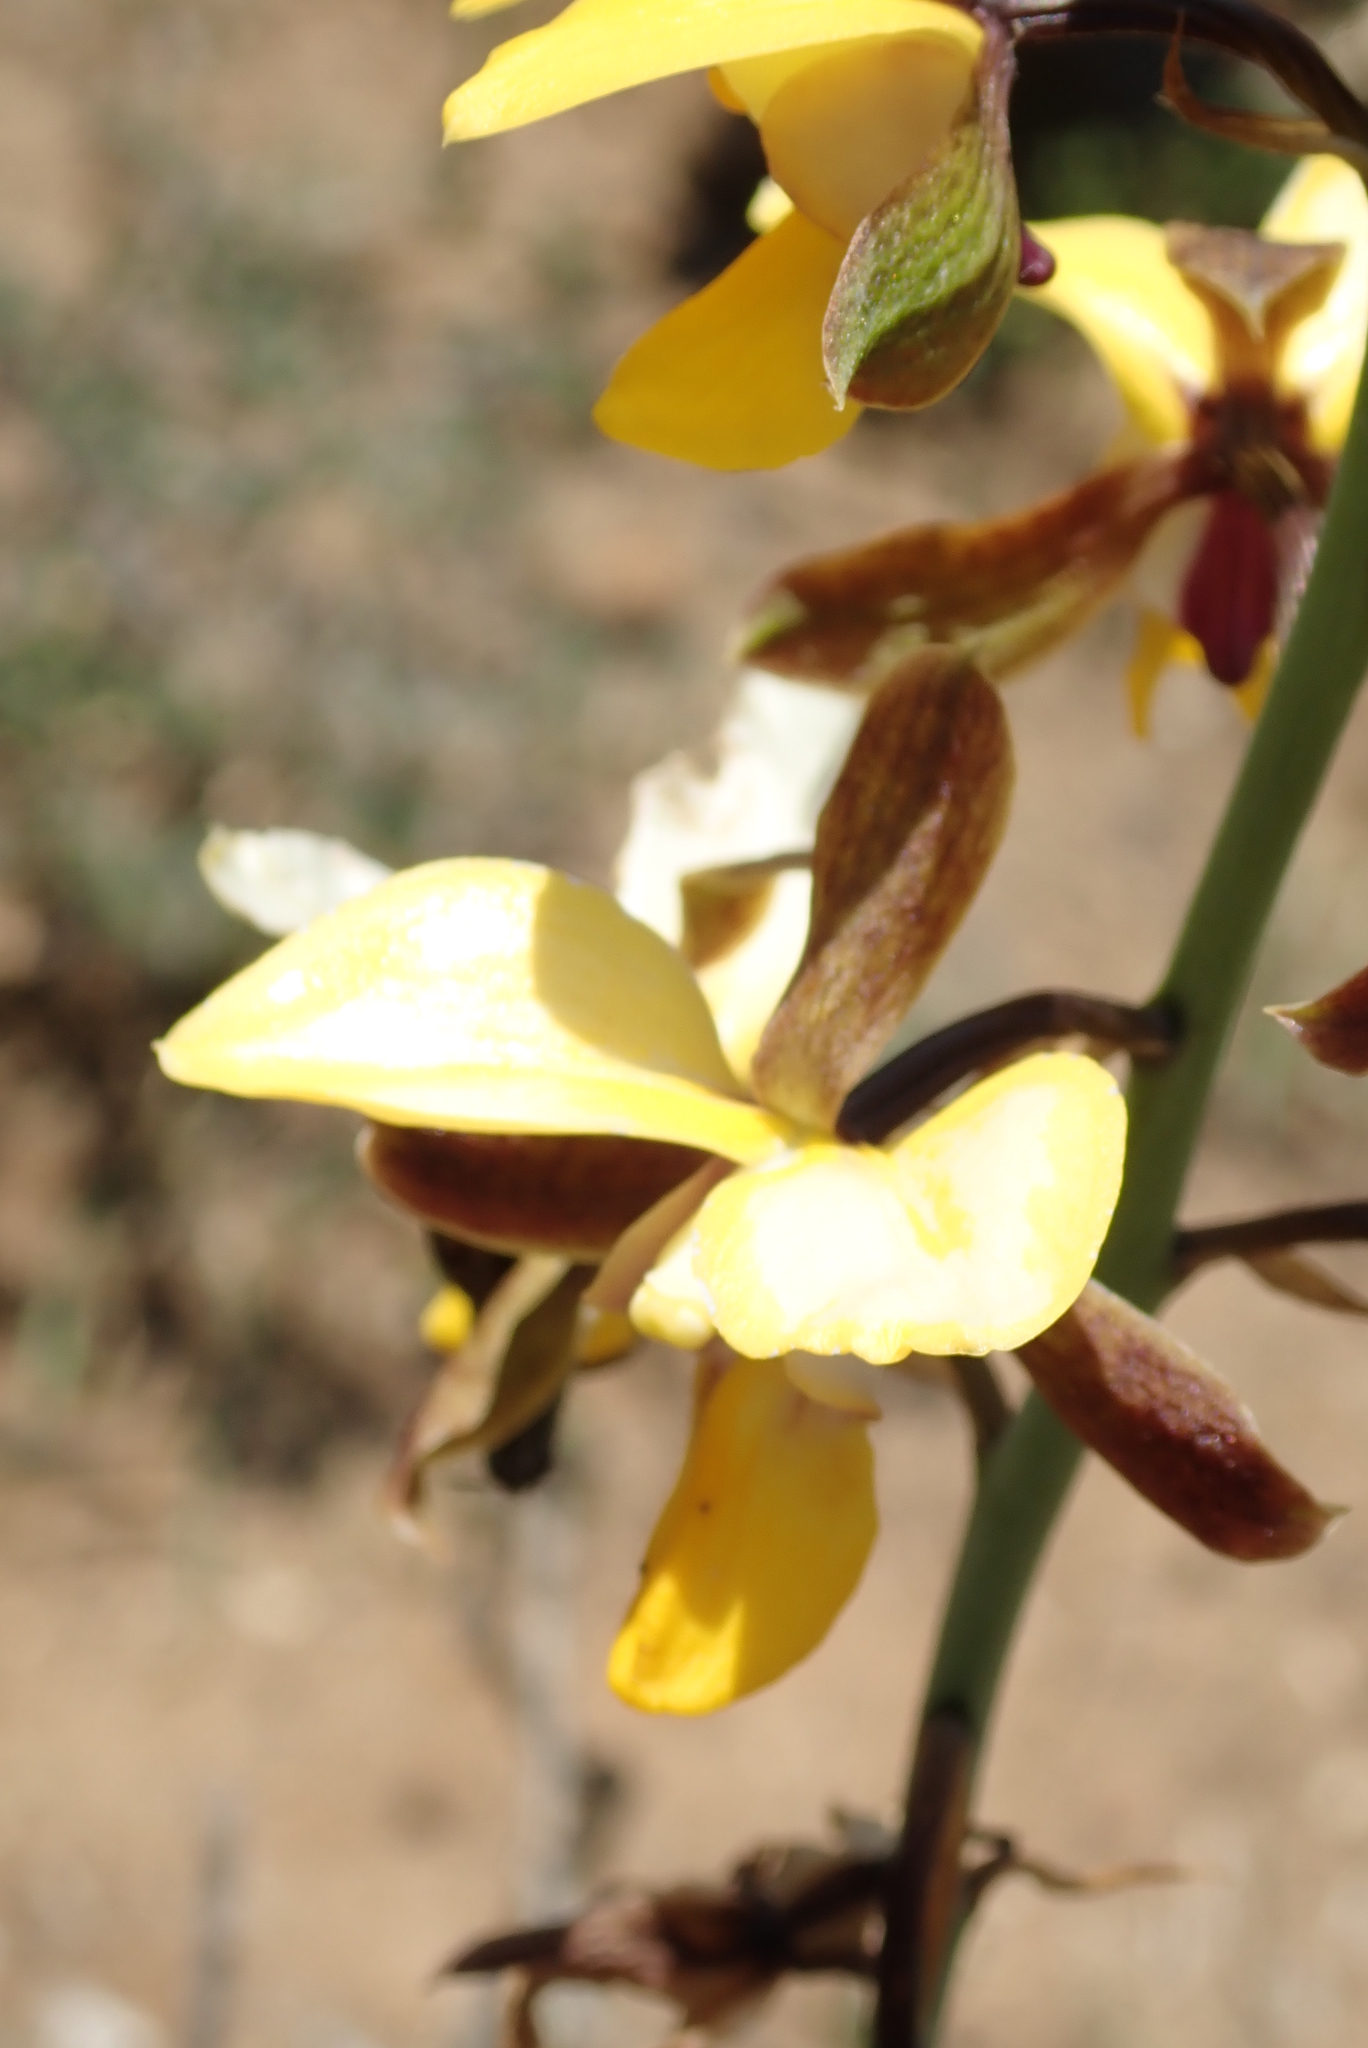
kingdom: Plantae
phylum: Tracheophyta
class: Liliopsida
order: Asparagales
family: Orchidaceae
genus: Eulophia
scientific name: Eulophia streptopetala
